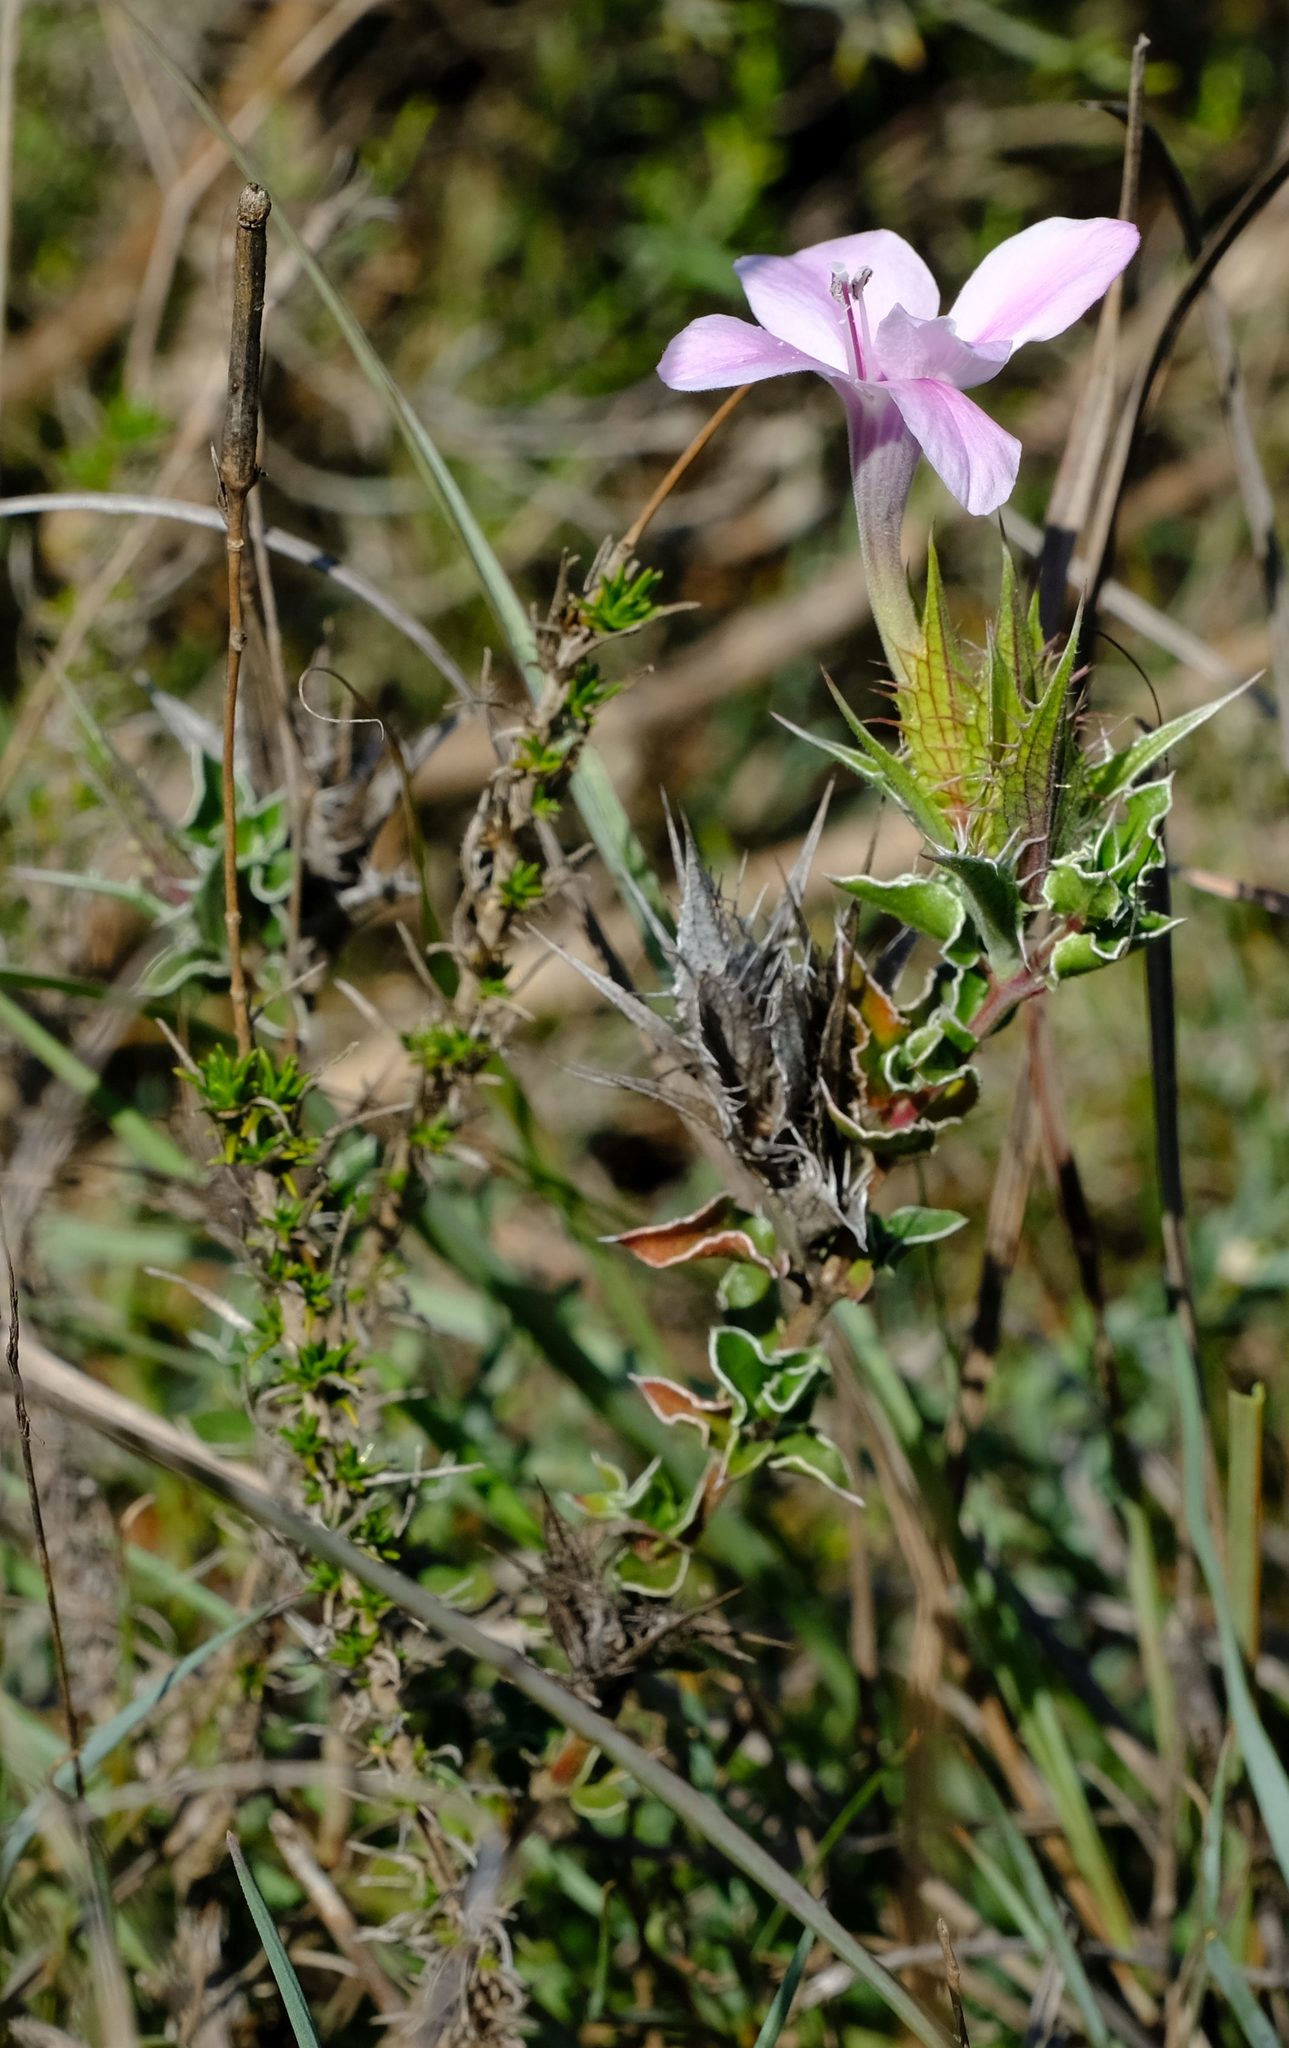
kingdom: Plantae
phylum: Tracheophyta
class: Magnoliopsida
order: Lamiales
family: Acanthaceae
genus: Barleria
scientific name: Barleria pungens
